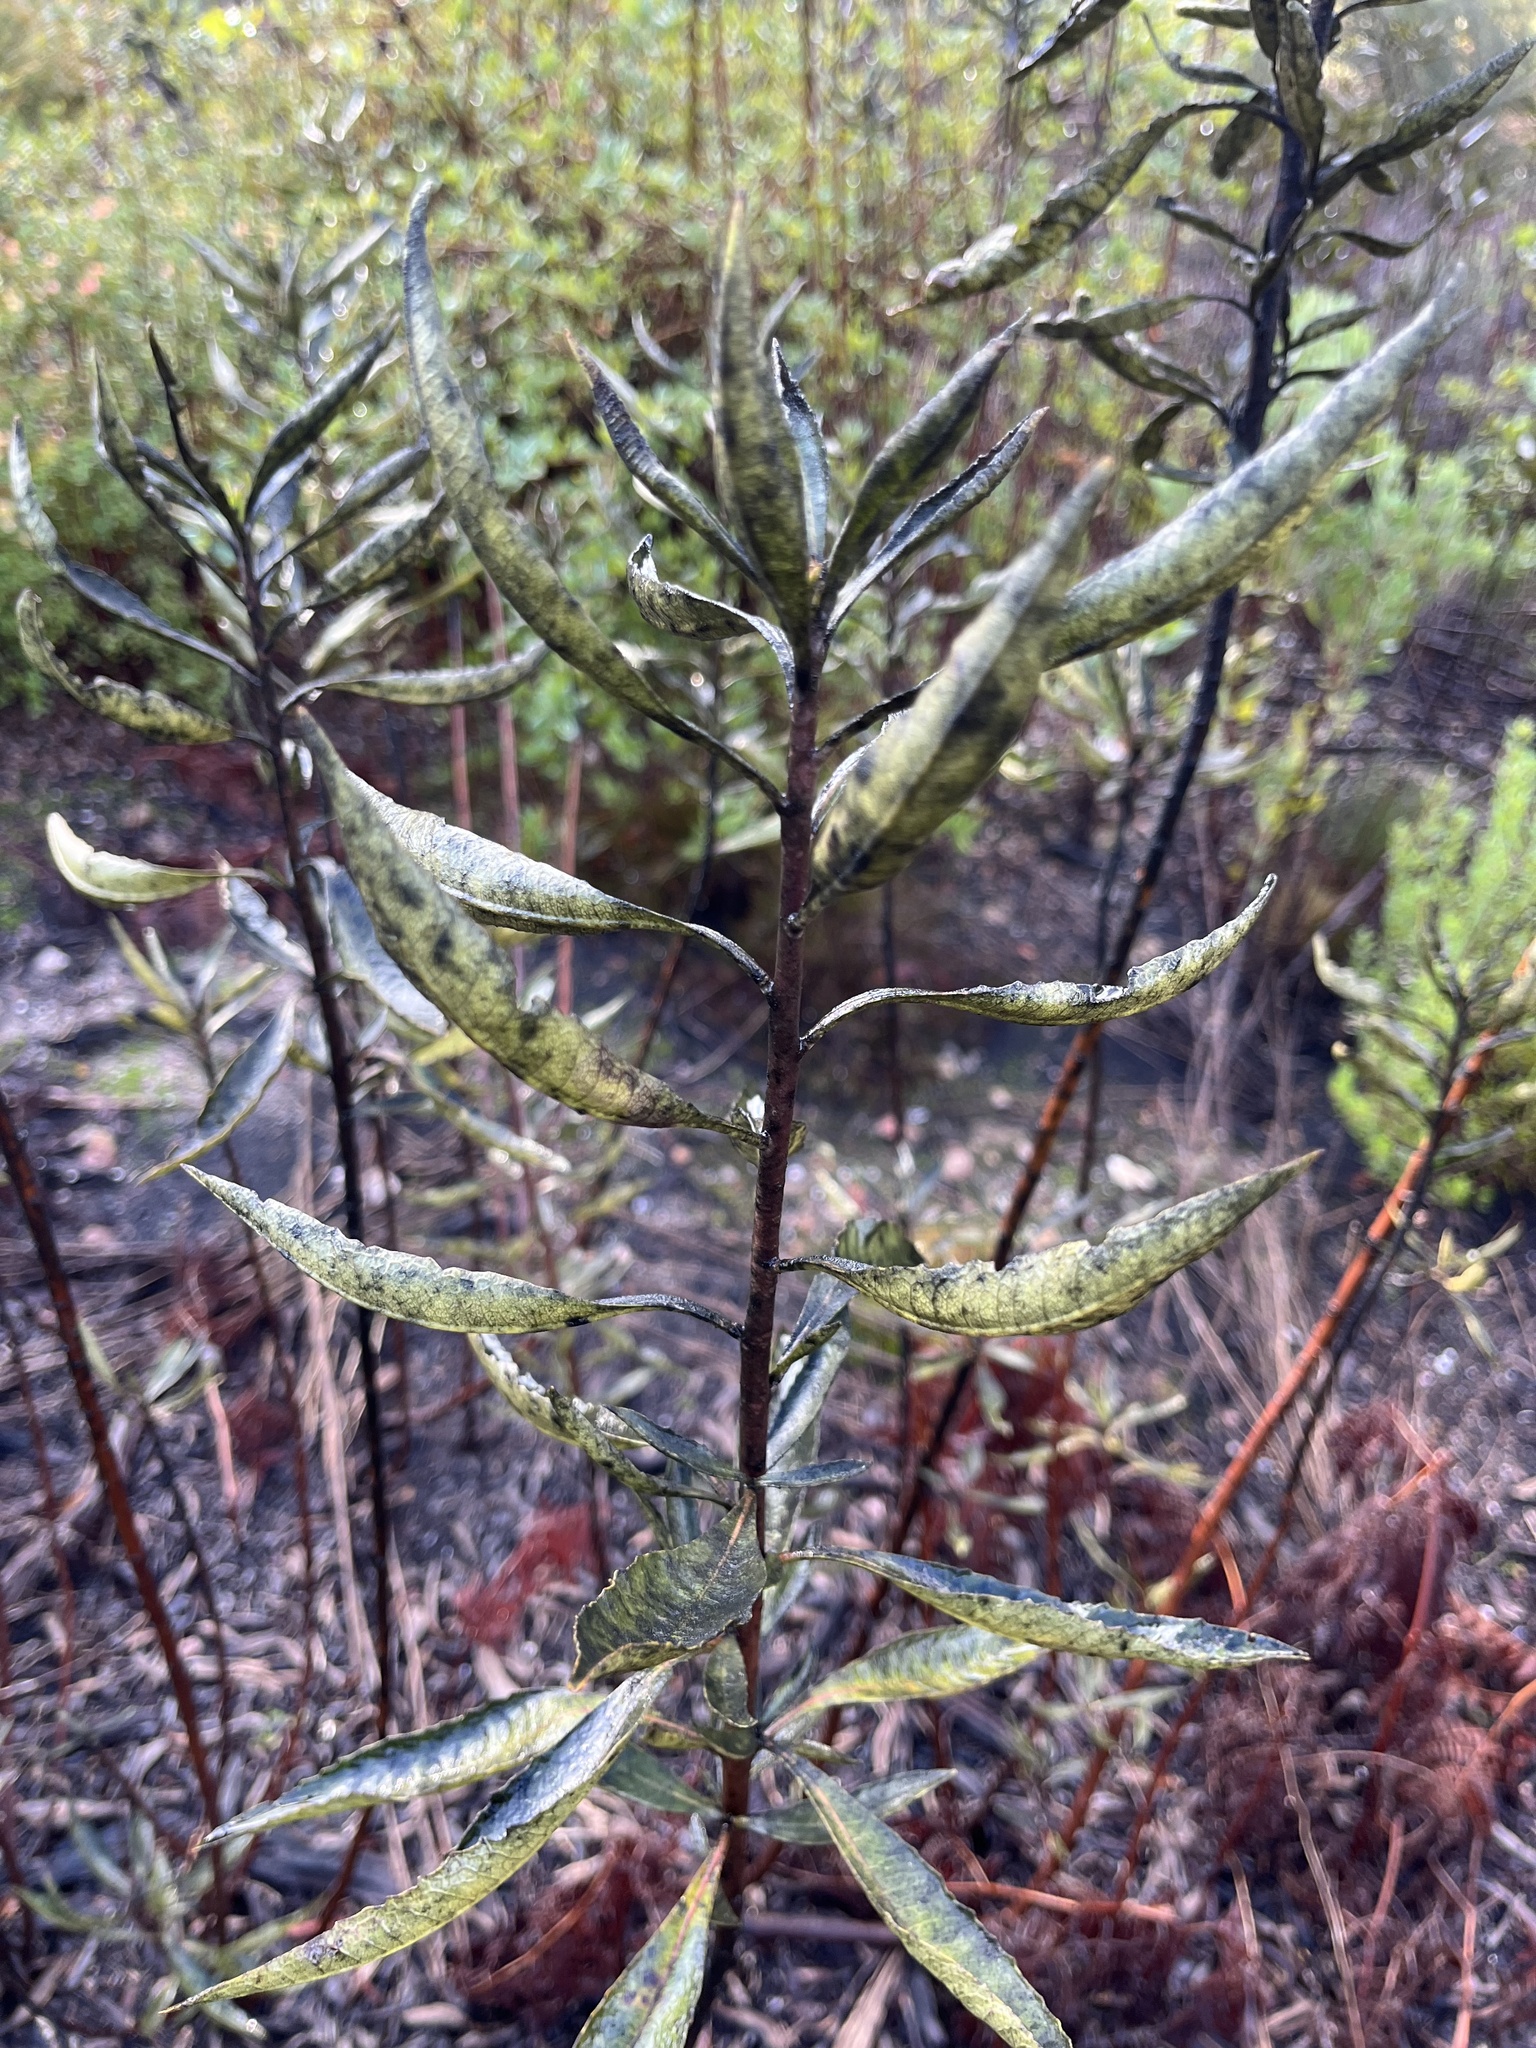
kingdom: Plantae
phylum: Tracheophyta
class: Magnoliopsida
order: Boraginales
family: Namaceae
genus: Eriodictyon
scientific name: Eriodictyon californicum
